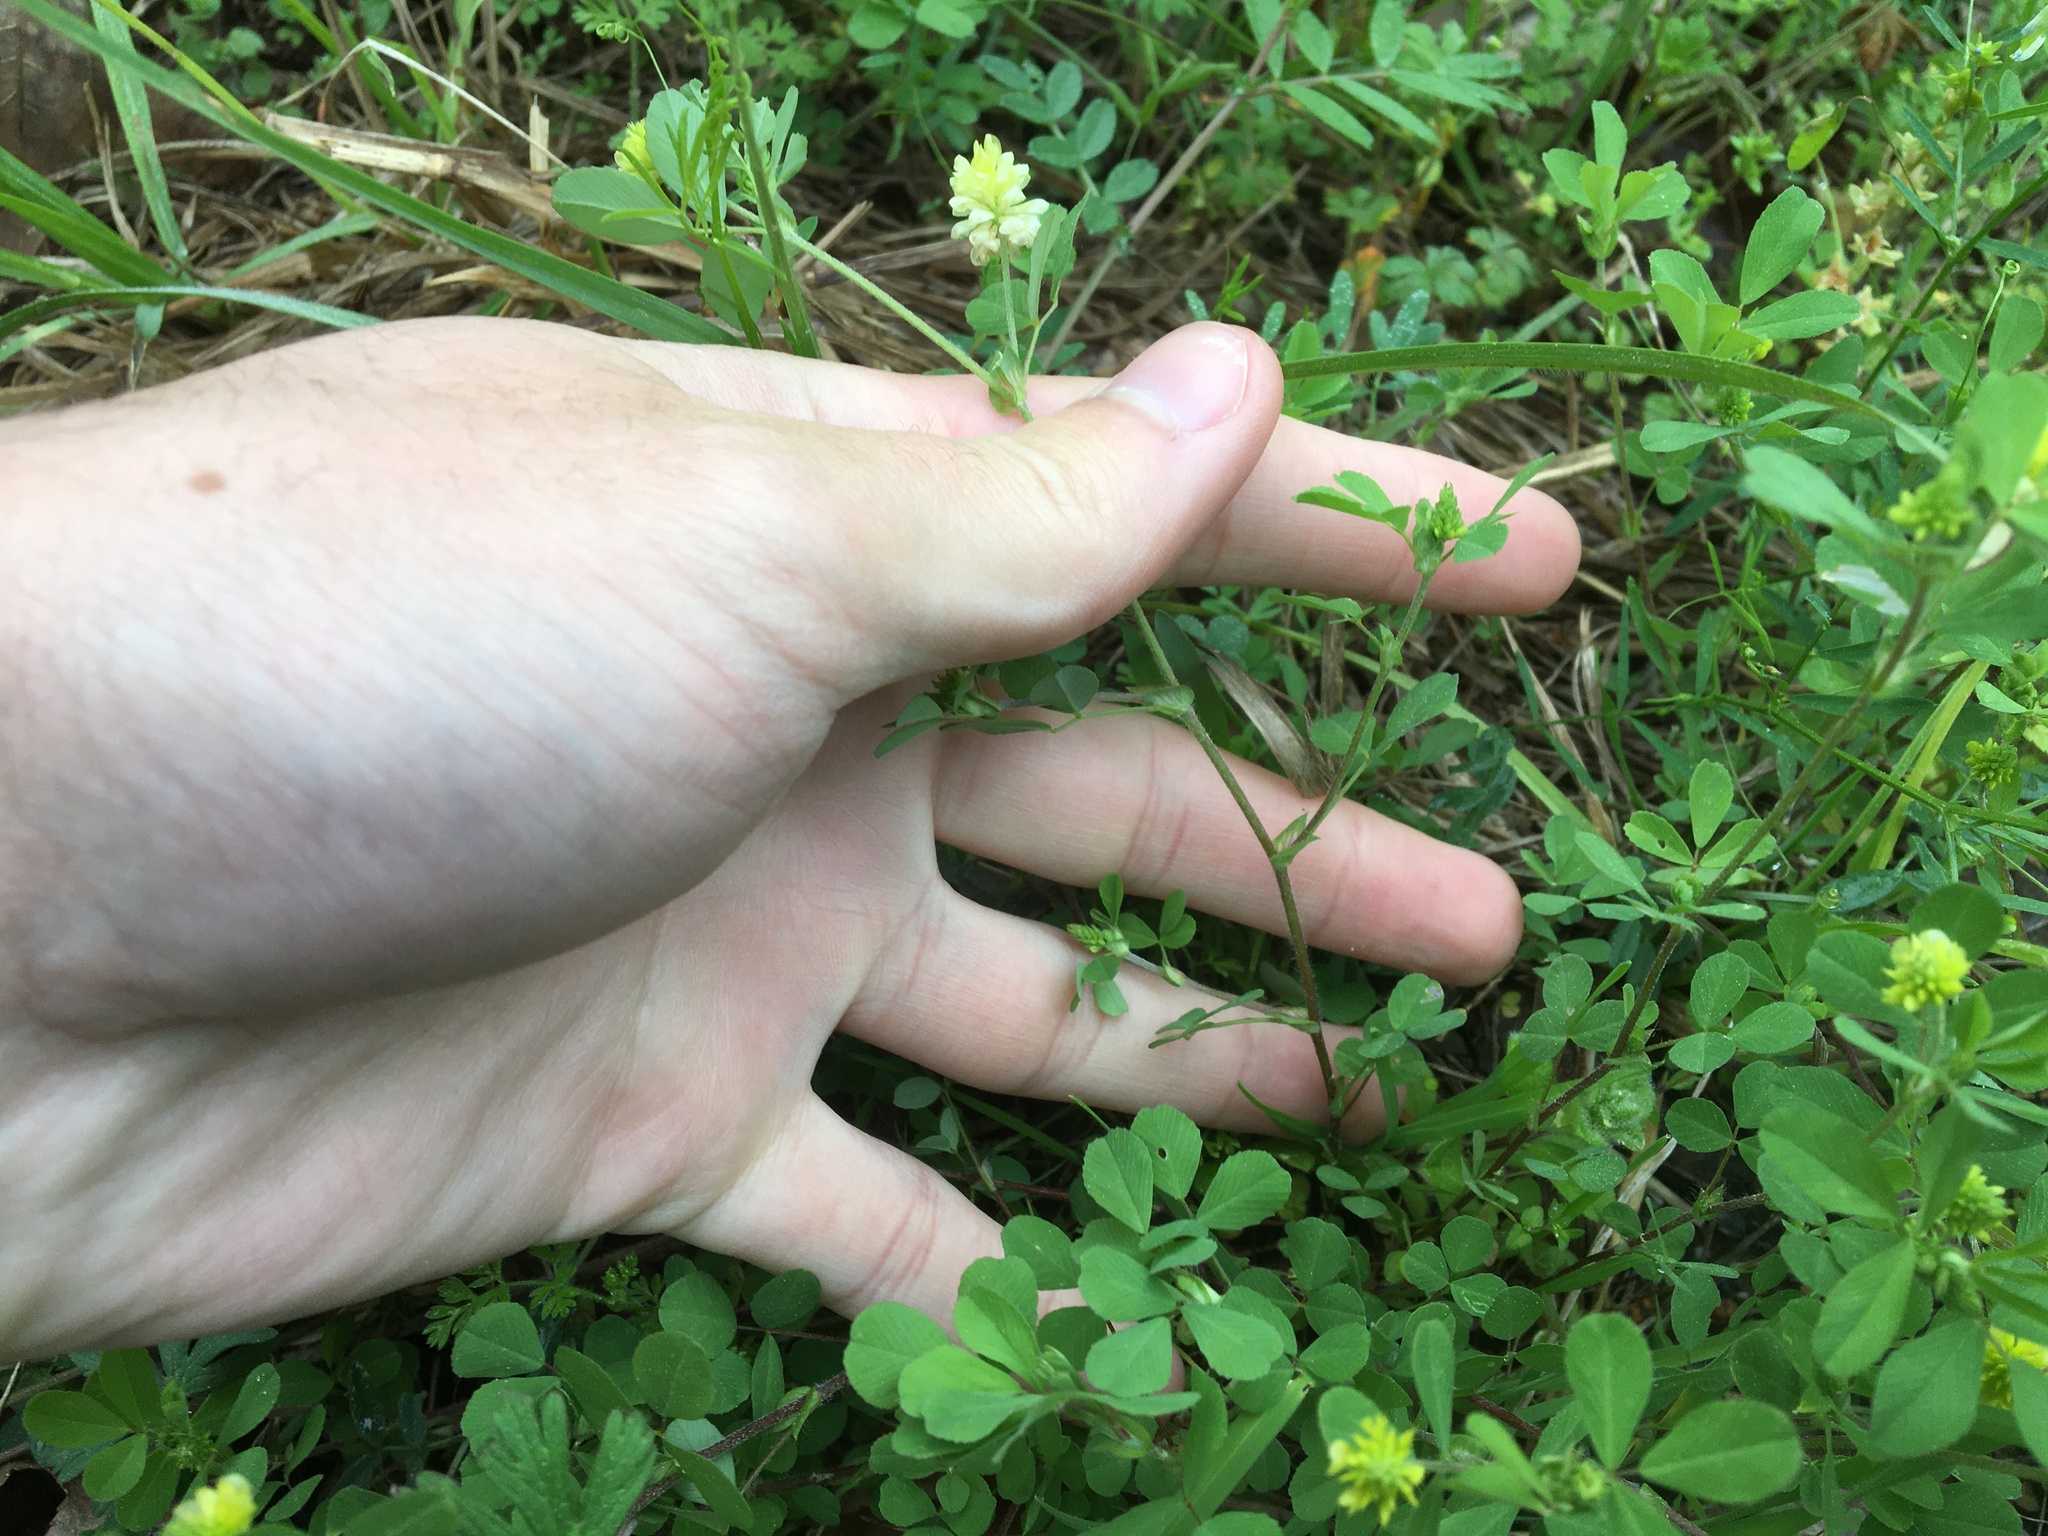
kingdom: Plantae
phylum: Tracheophyta
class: Magnoliopsida
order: Fabales
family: Fabaceae
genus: Trifolium
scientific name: Trifolium campestre
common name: Field clover
